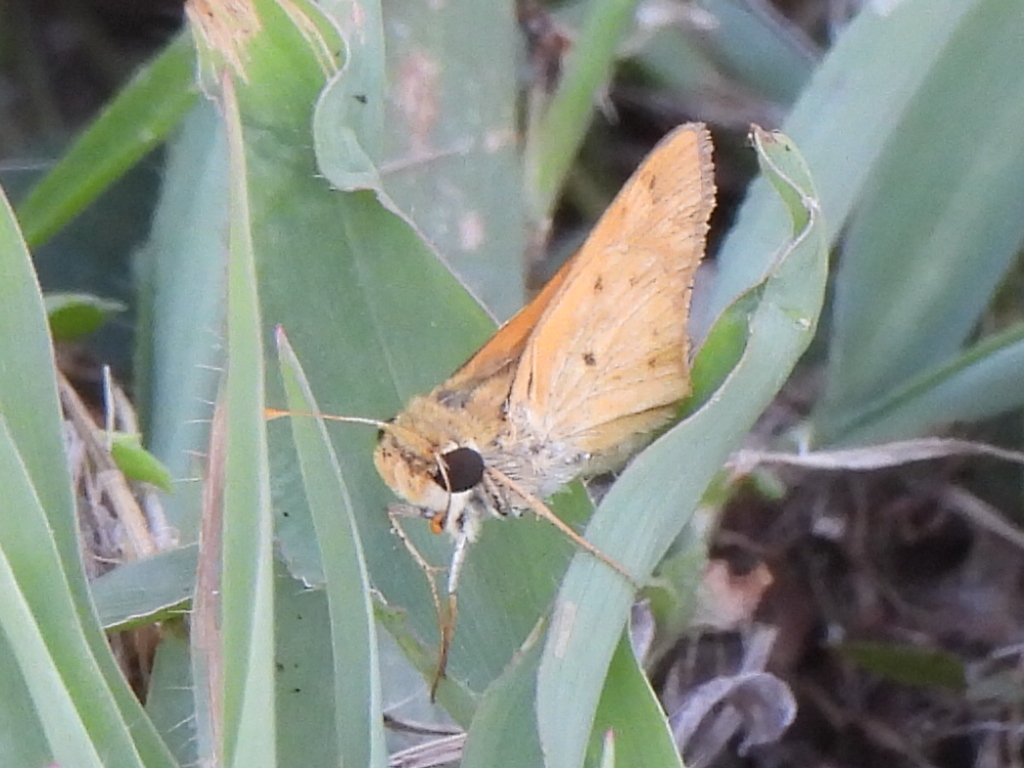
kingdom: Animalia
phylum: Arthropoda
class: Insecta
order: Lepidoptera
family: Hesperiidae
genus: Hylephila
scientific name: Hylephila phyleus
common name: Fiery skipper
